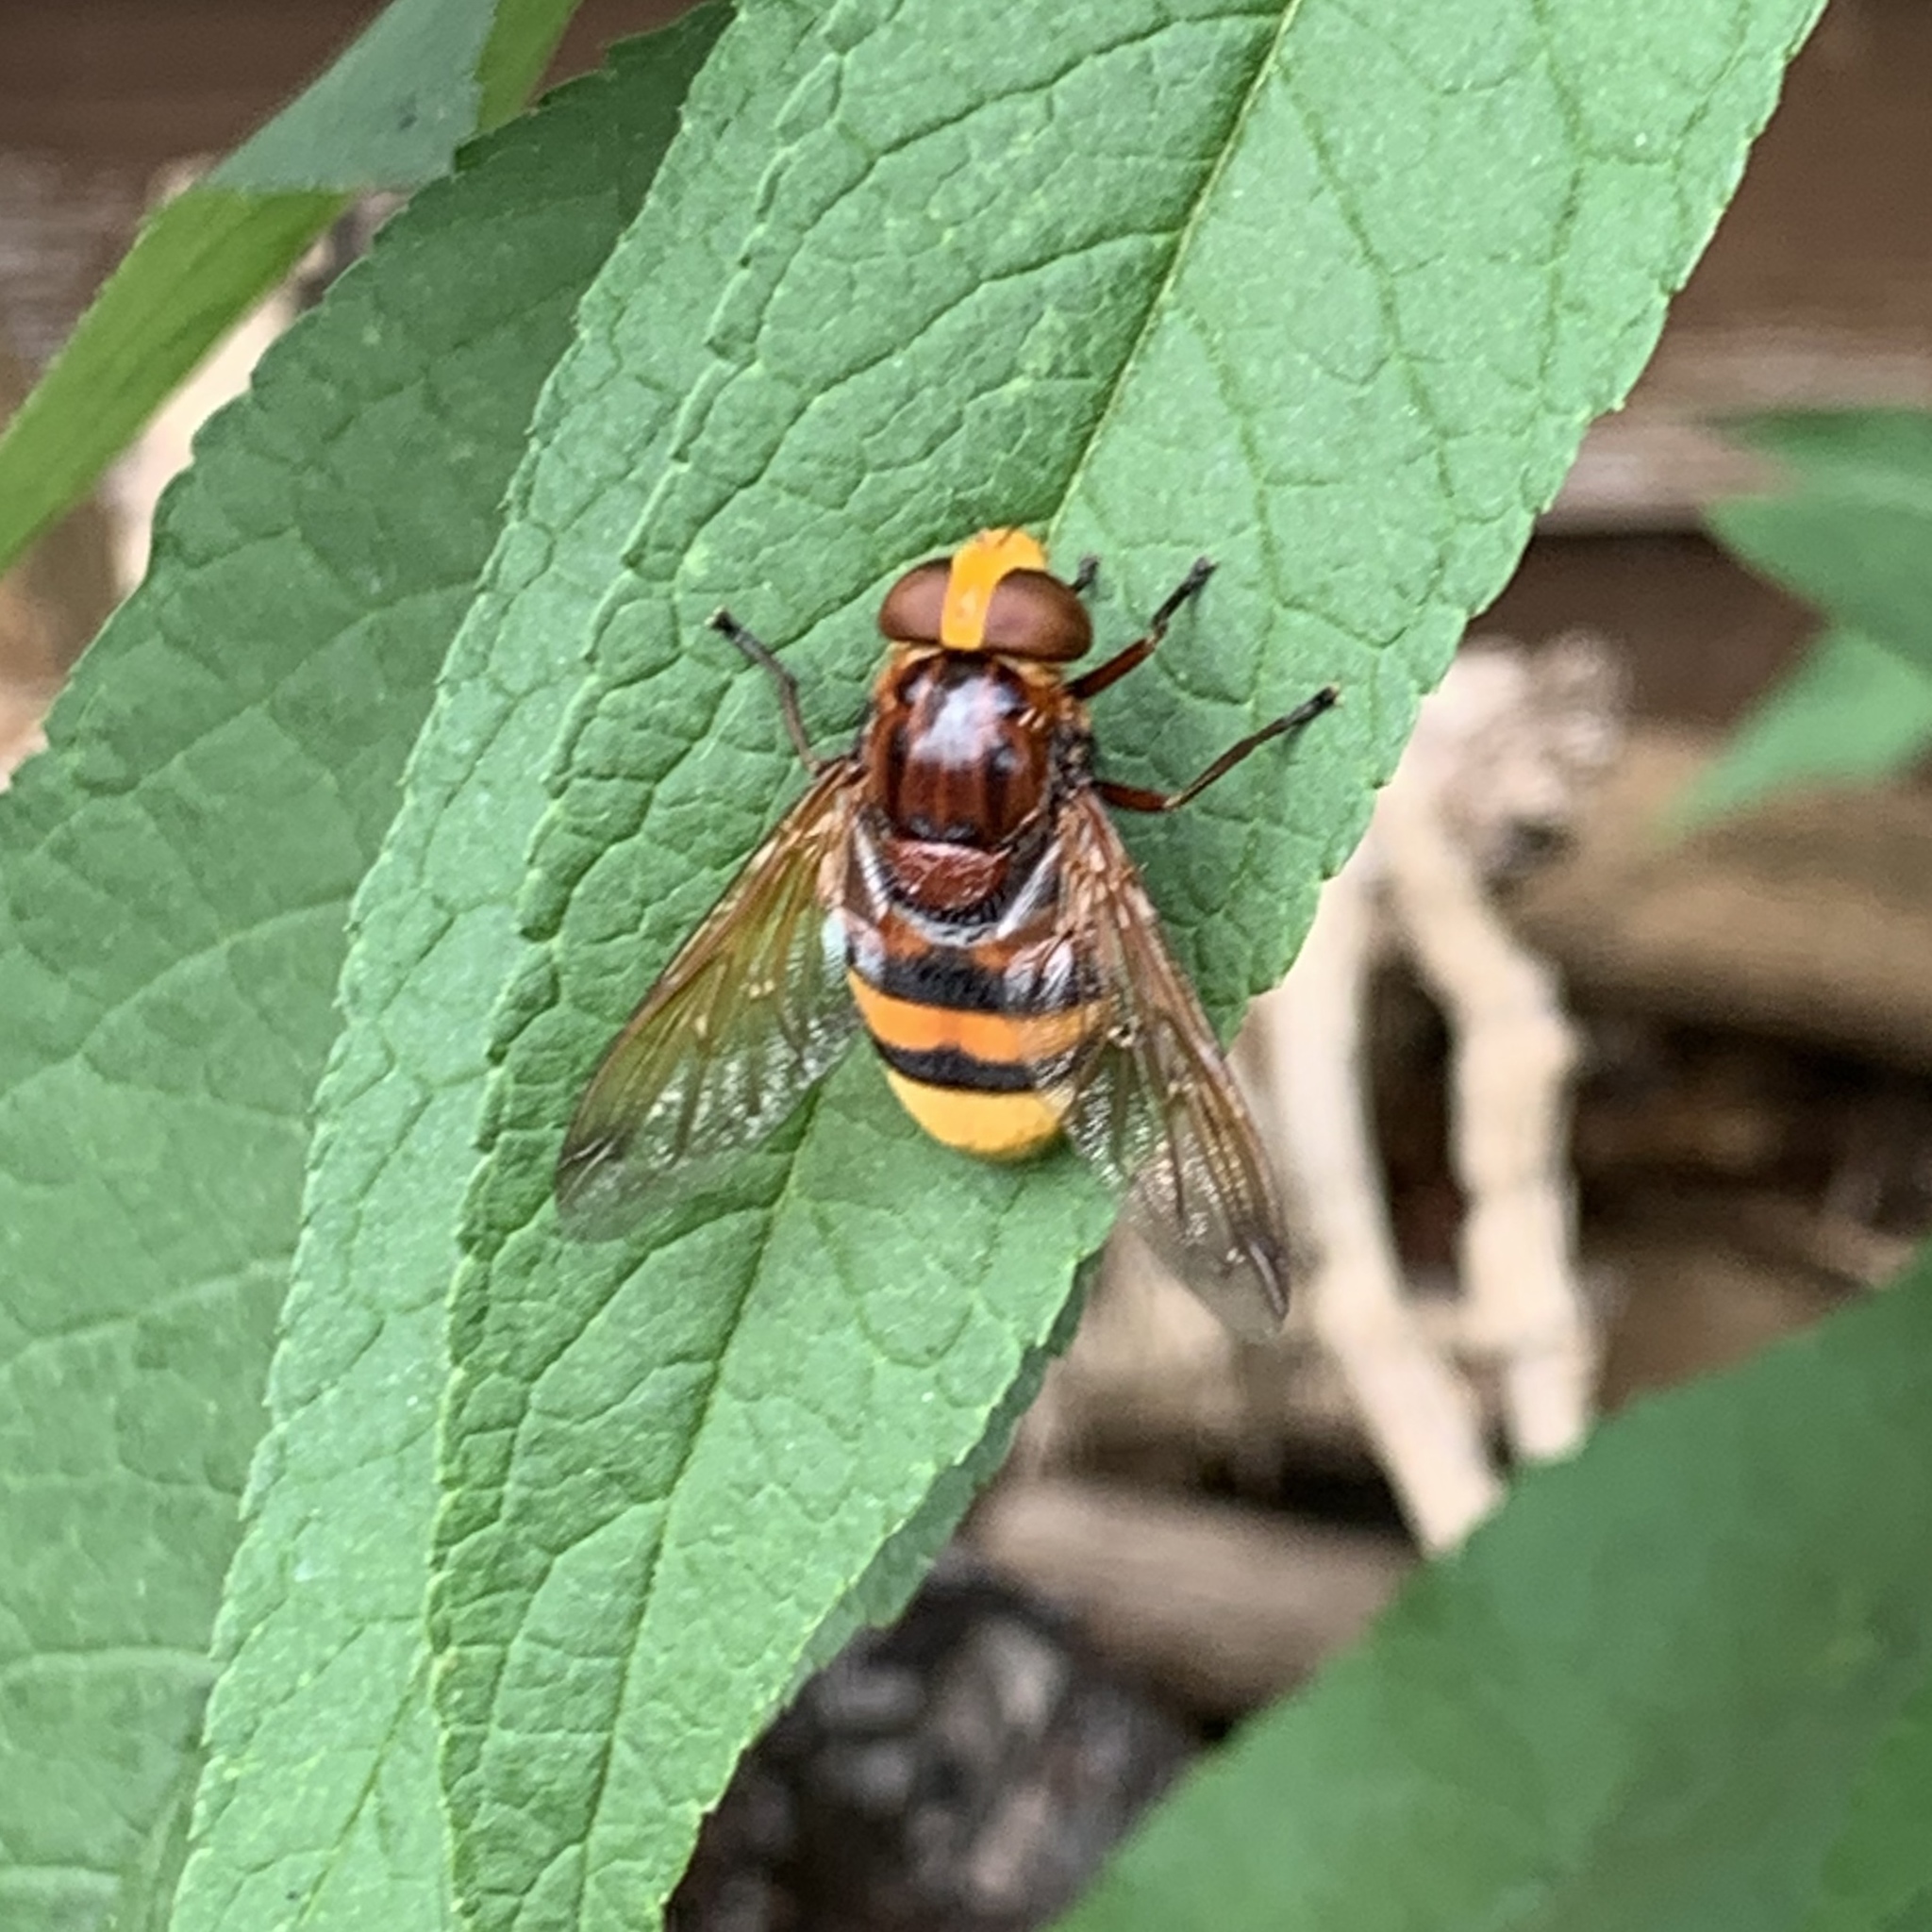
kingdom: Animalia
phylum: Arthropoda
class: Insecta
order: Diptera
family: Syrphidae
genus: Volucella
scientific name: Volucella zonaria
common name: Hornet hoverfly
